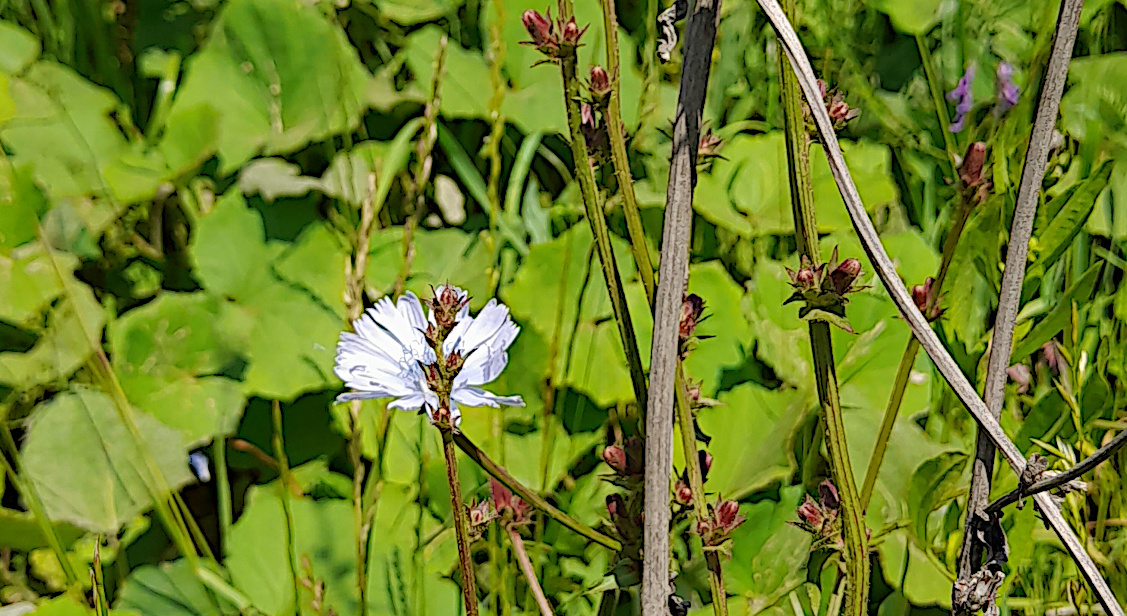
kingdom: Plantae
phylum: Tracheophyta
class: Magnoliopsida
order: Asterales
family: Asteraceae
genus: Cichorium
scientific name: Cichorium intybus
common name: Chicory
